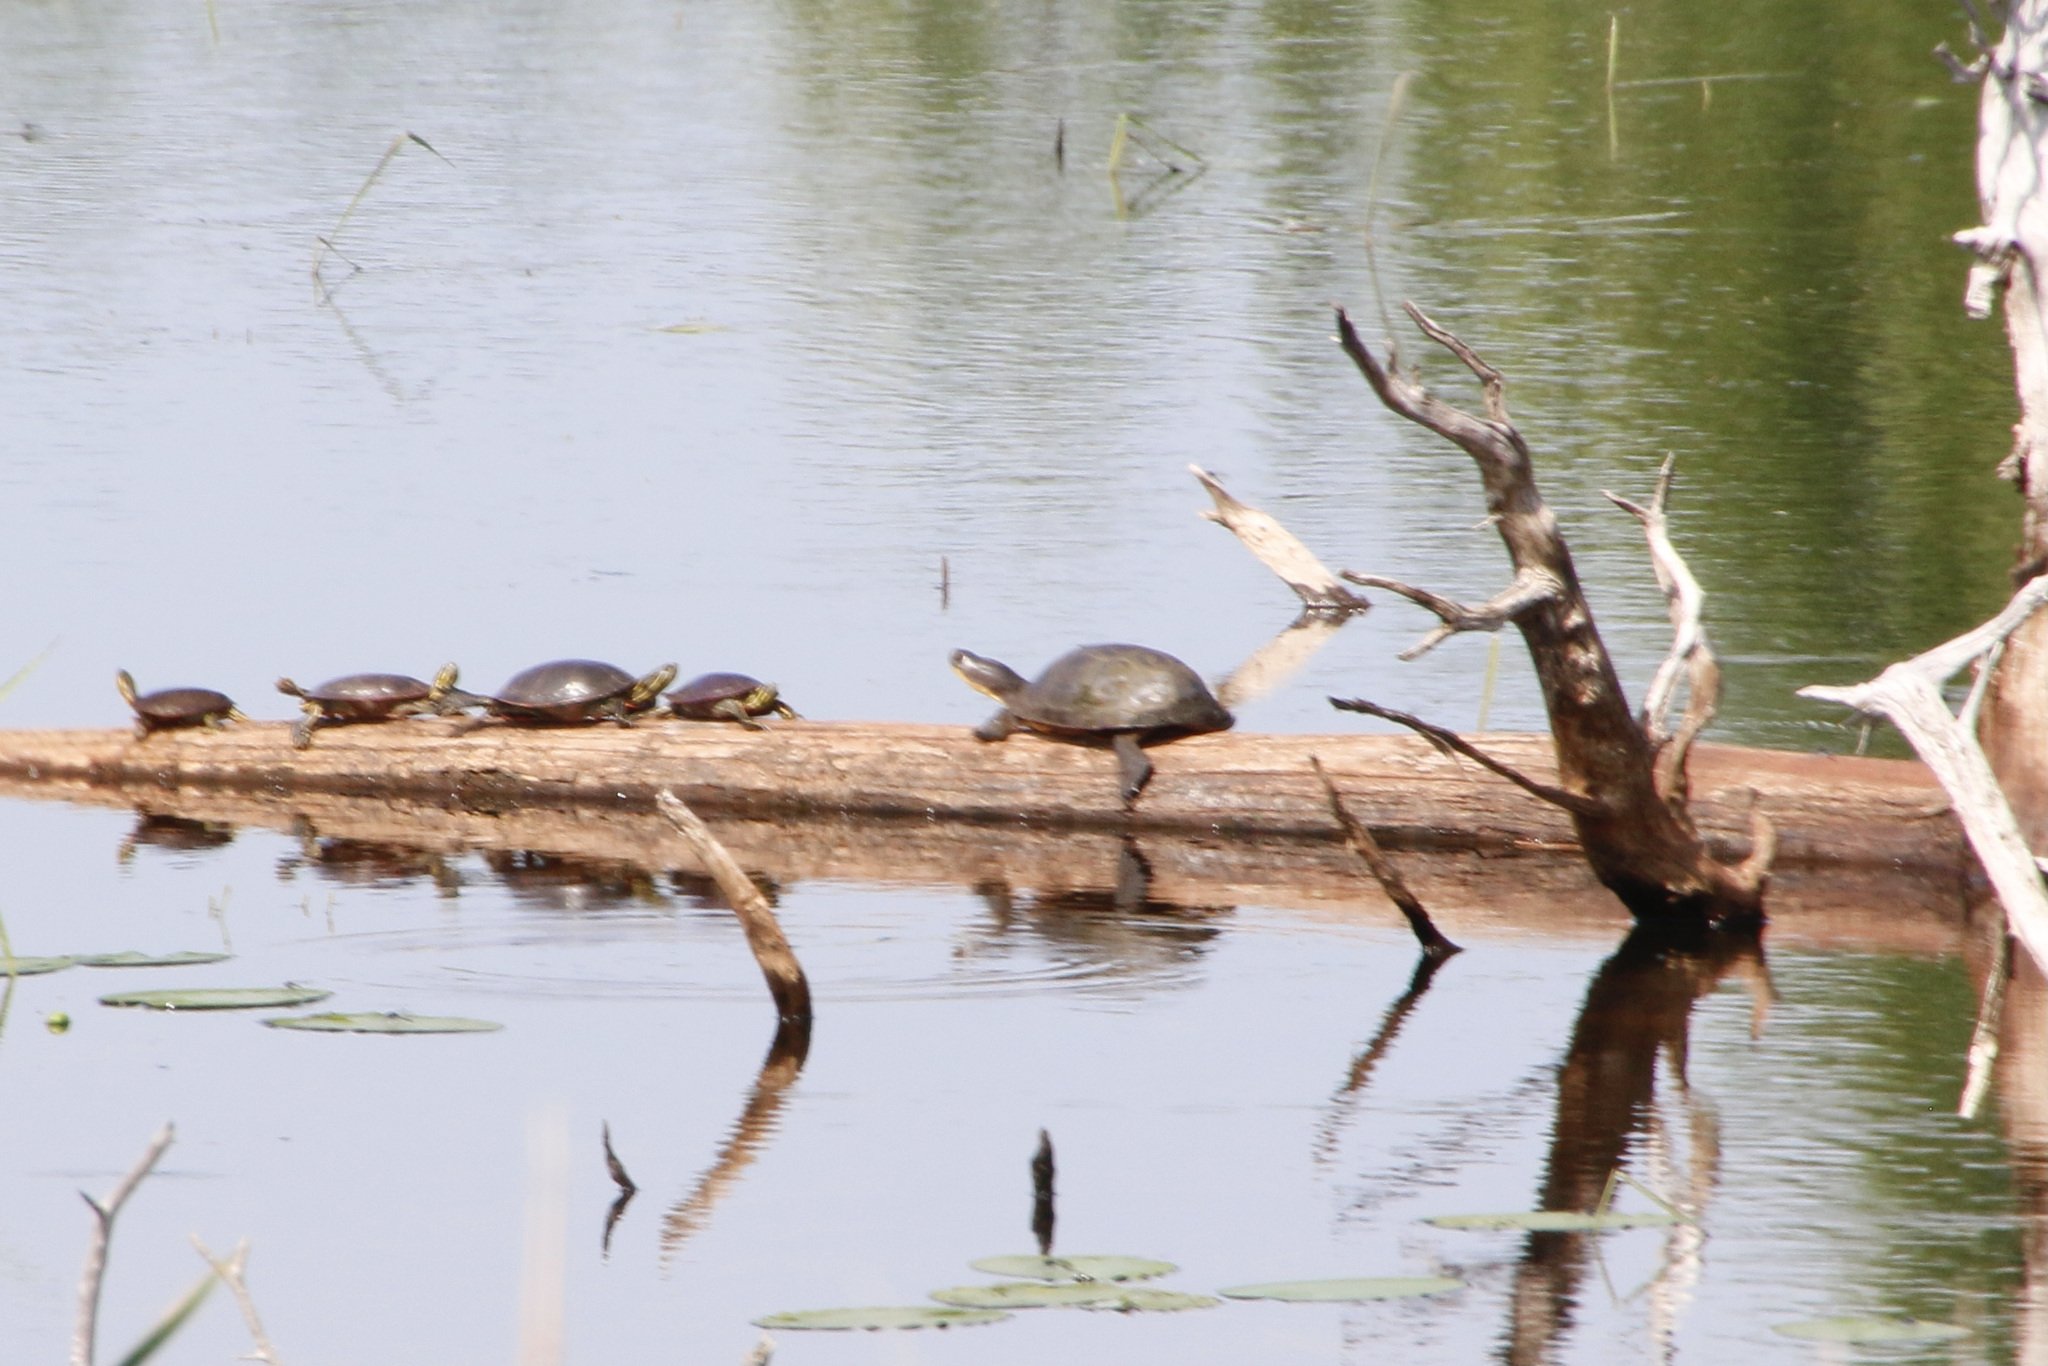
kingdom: Animalia
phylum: Chordata
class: Testudines
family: Emydidae
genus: Emys
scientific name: Emys blandingii
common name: Blanding's turtle
